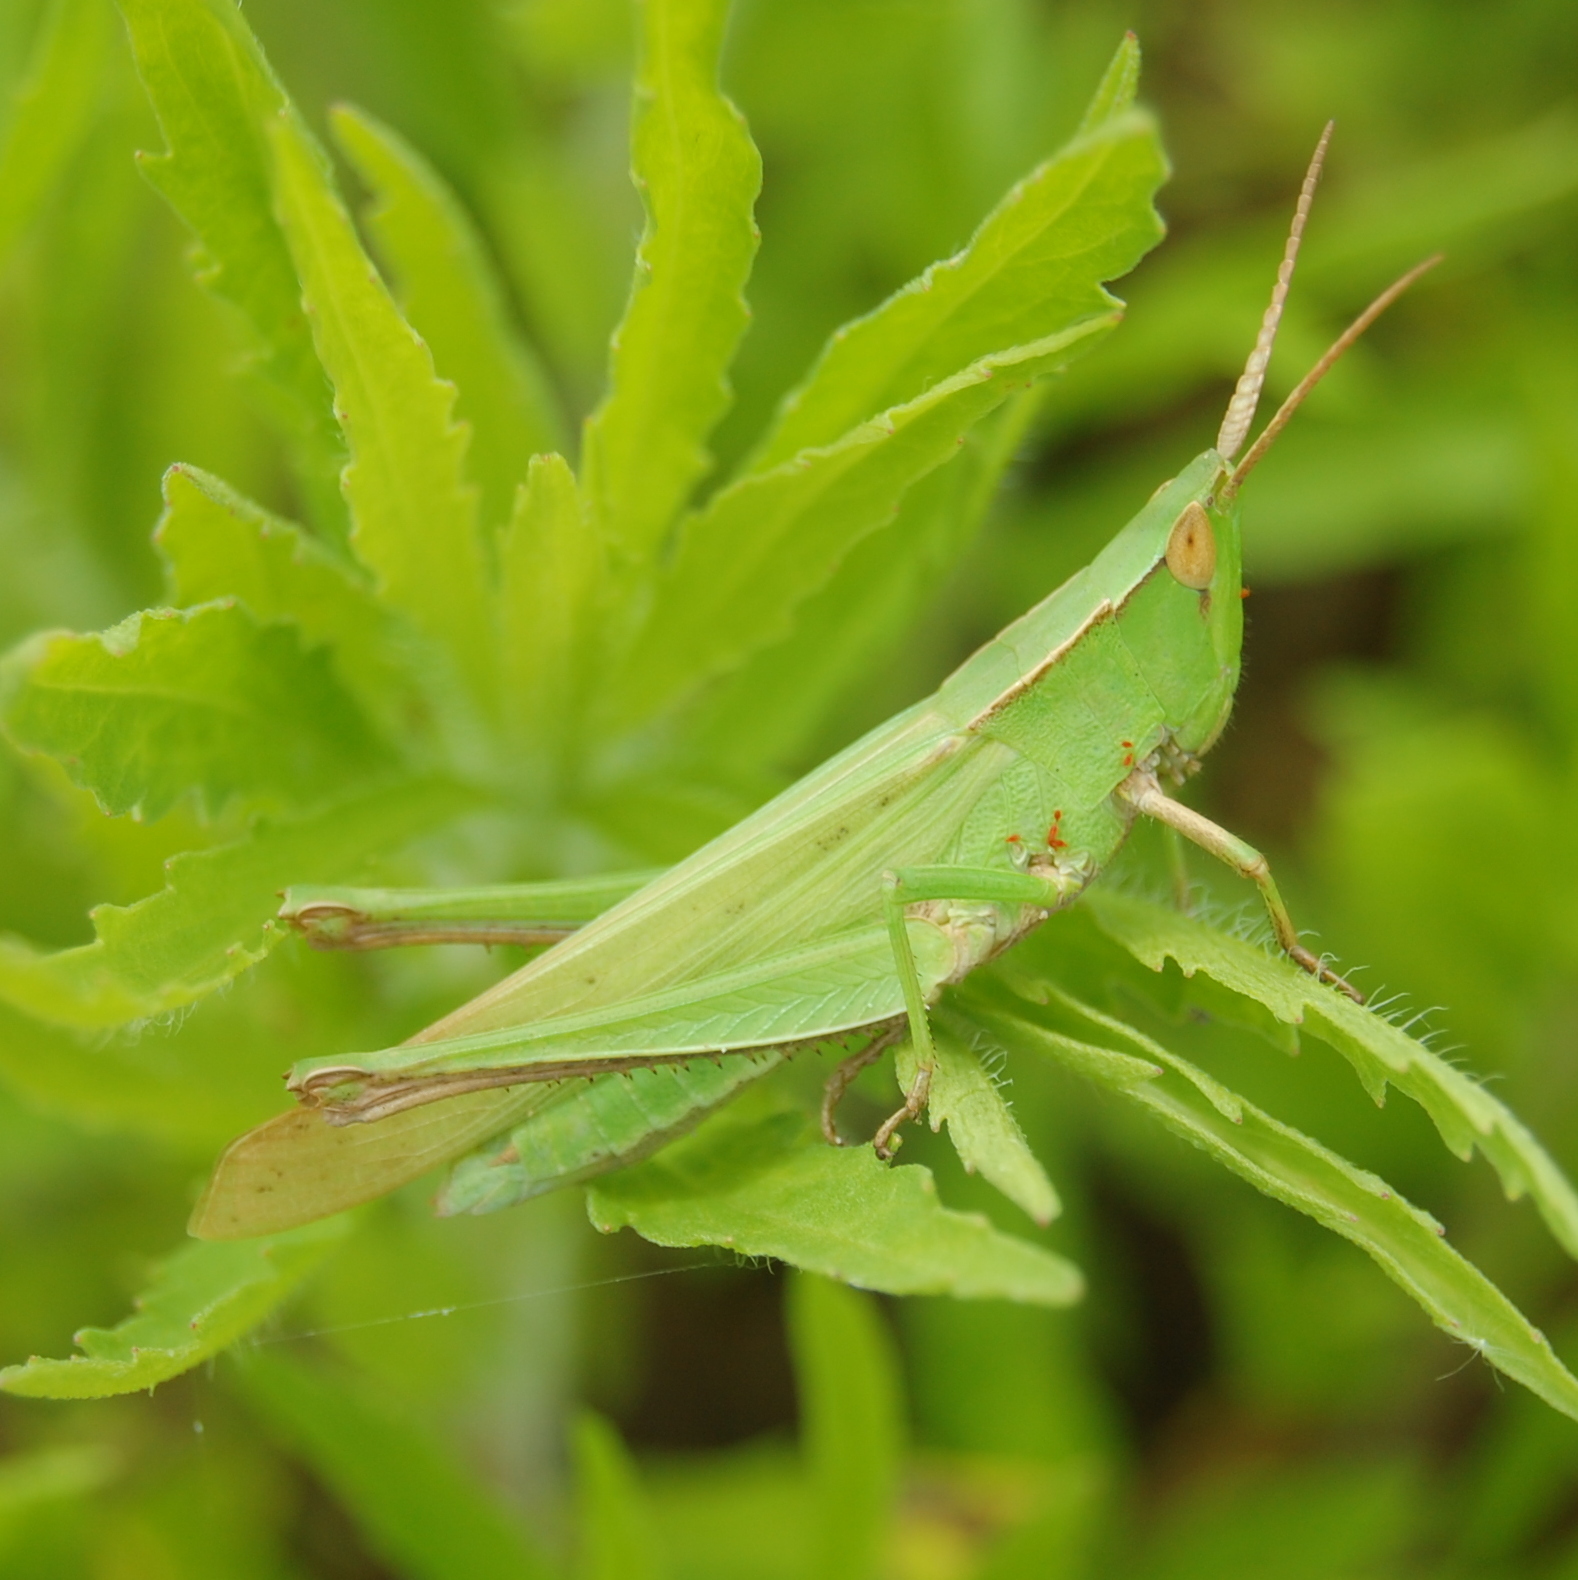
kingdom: Animalia
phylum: Arthropoda
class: Insecta
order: Orthoptera
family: Acrididae
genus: Metaleptea
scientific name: Metaleptea adspersa
